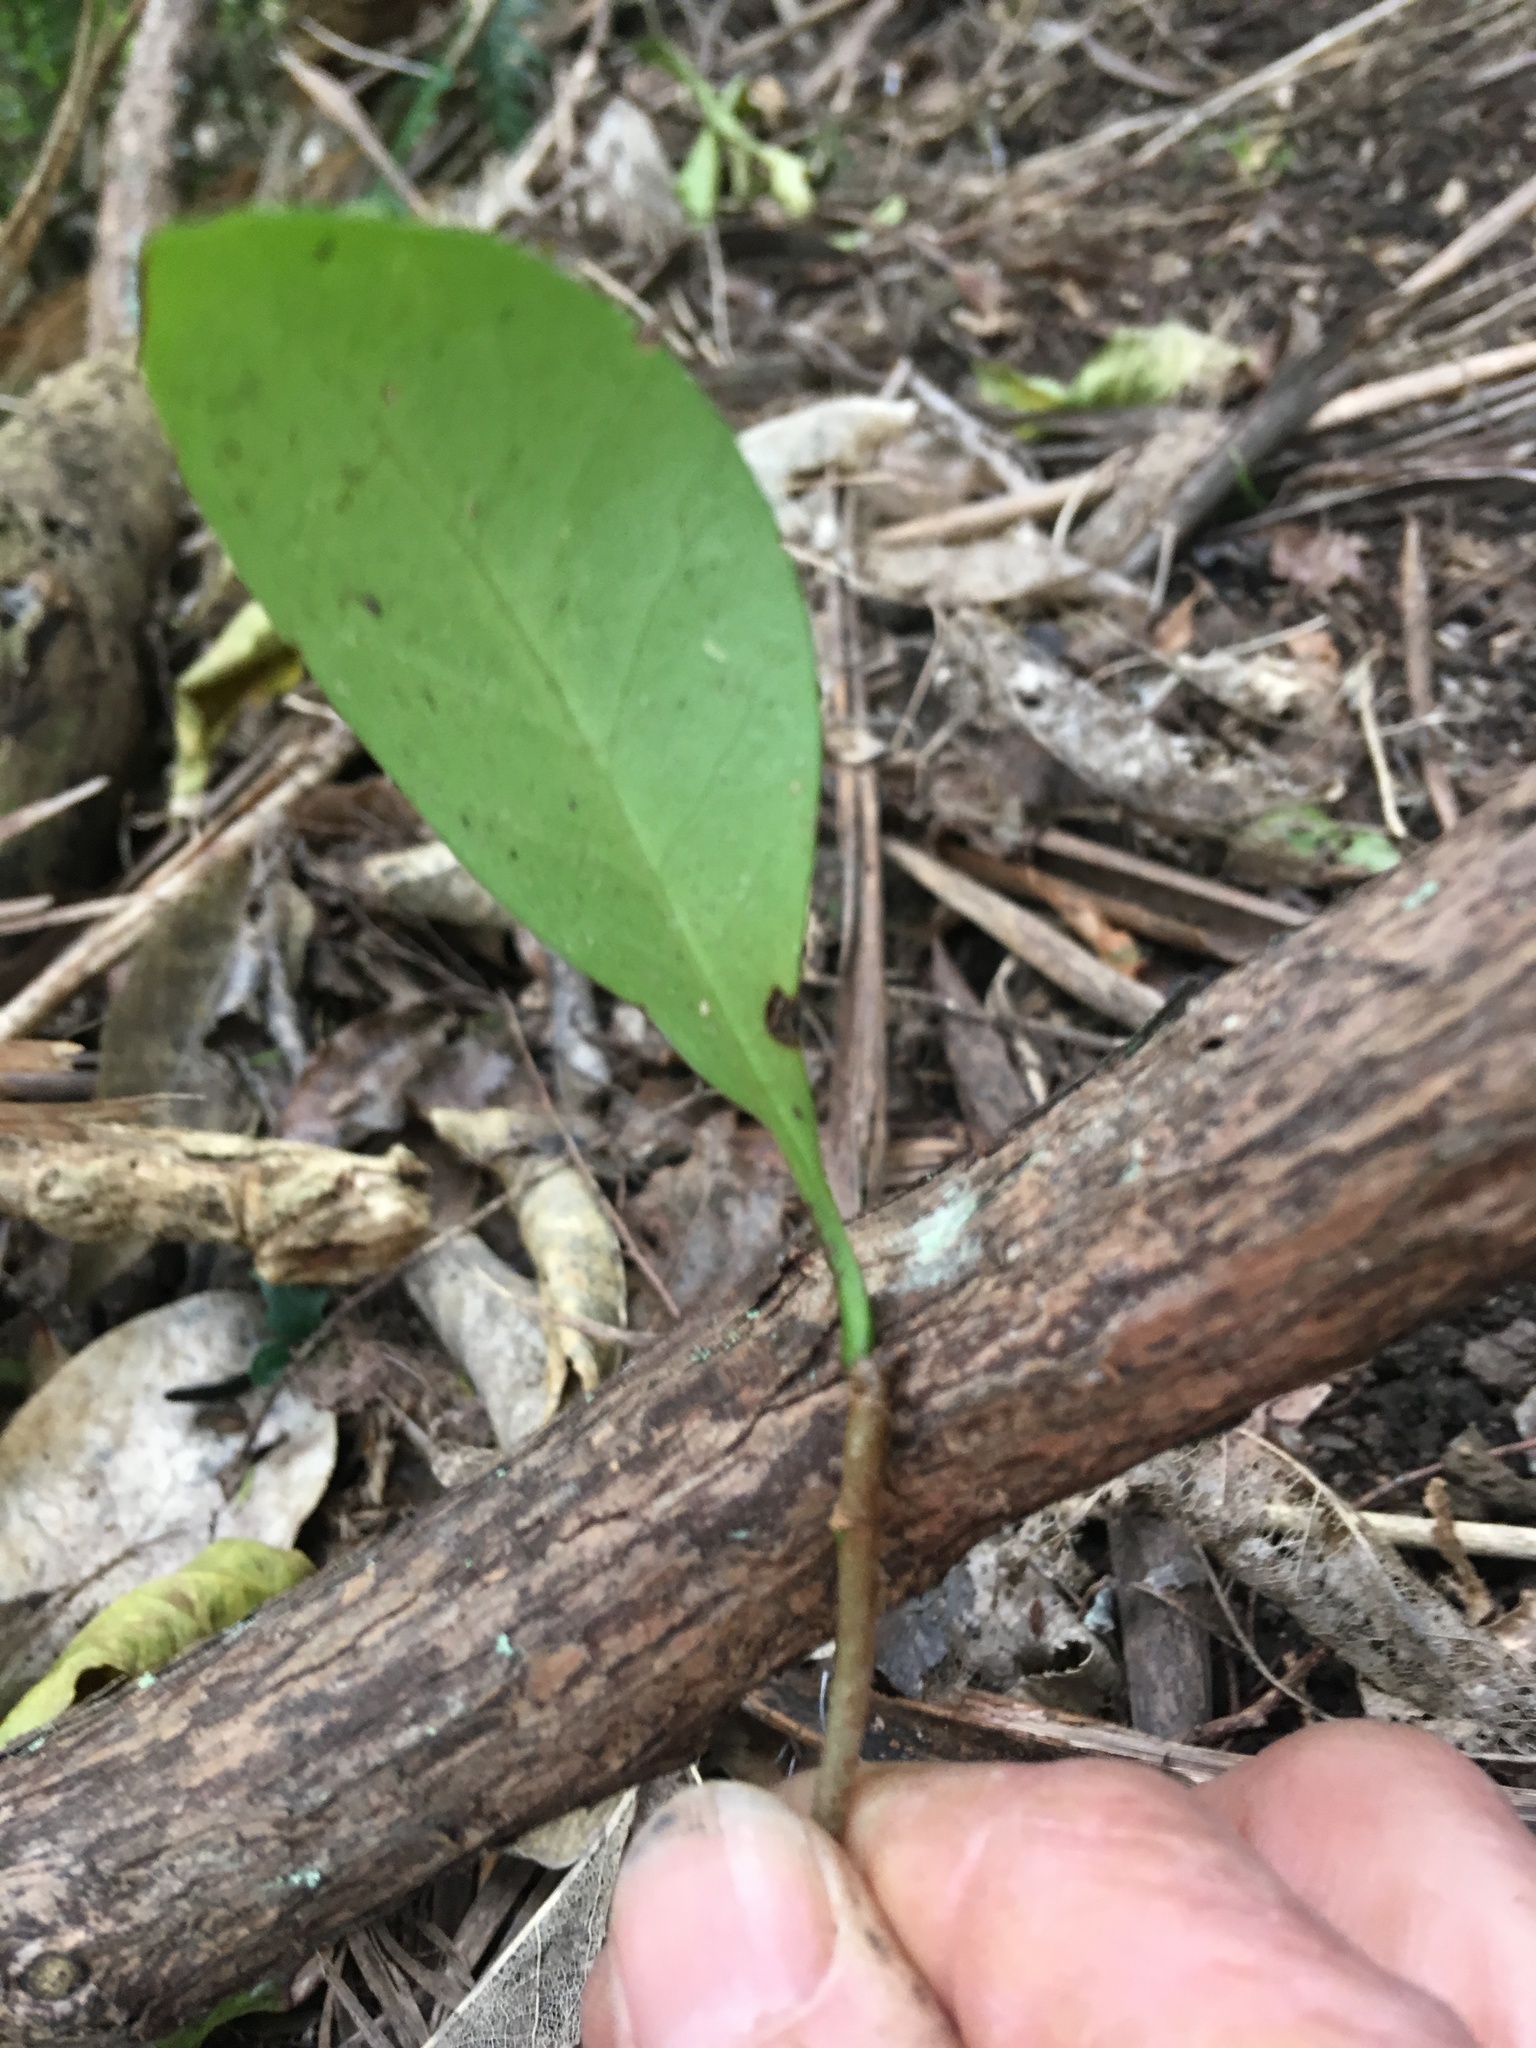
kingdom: Plantae
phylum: Tracheophyta
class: Magnoliopsida
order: Cucurbitales
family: Corynocarpaceae
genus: Corynocarpus
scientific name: Corynocarpus laevigatus
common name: New zealand laurel
